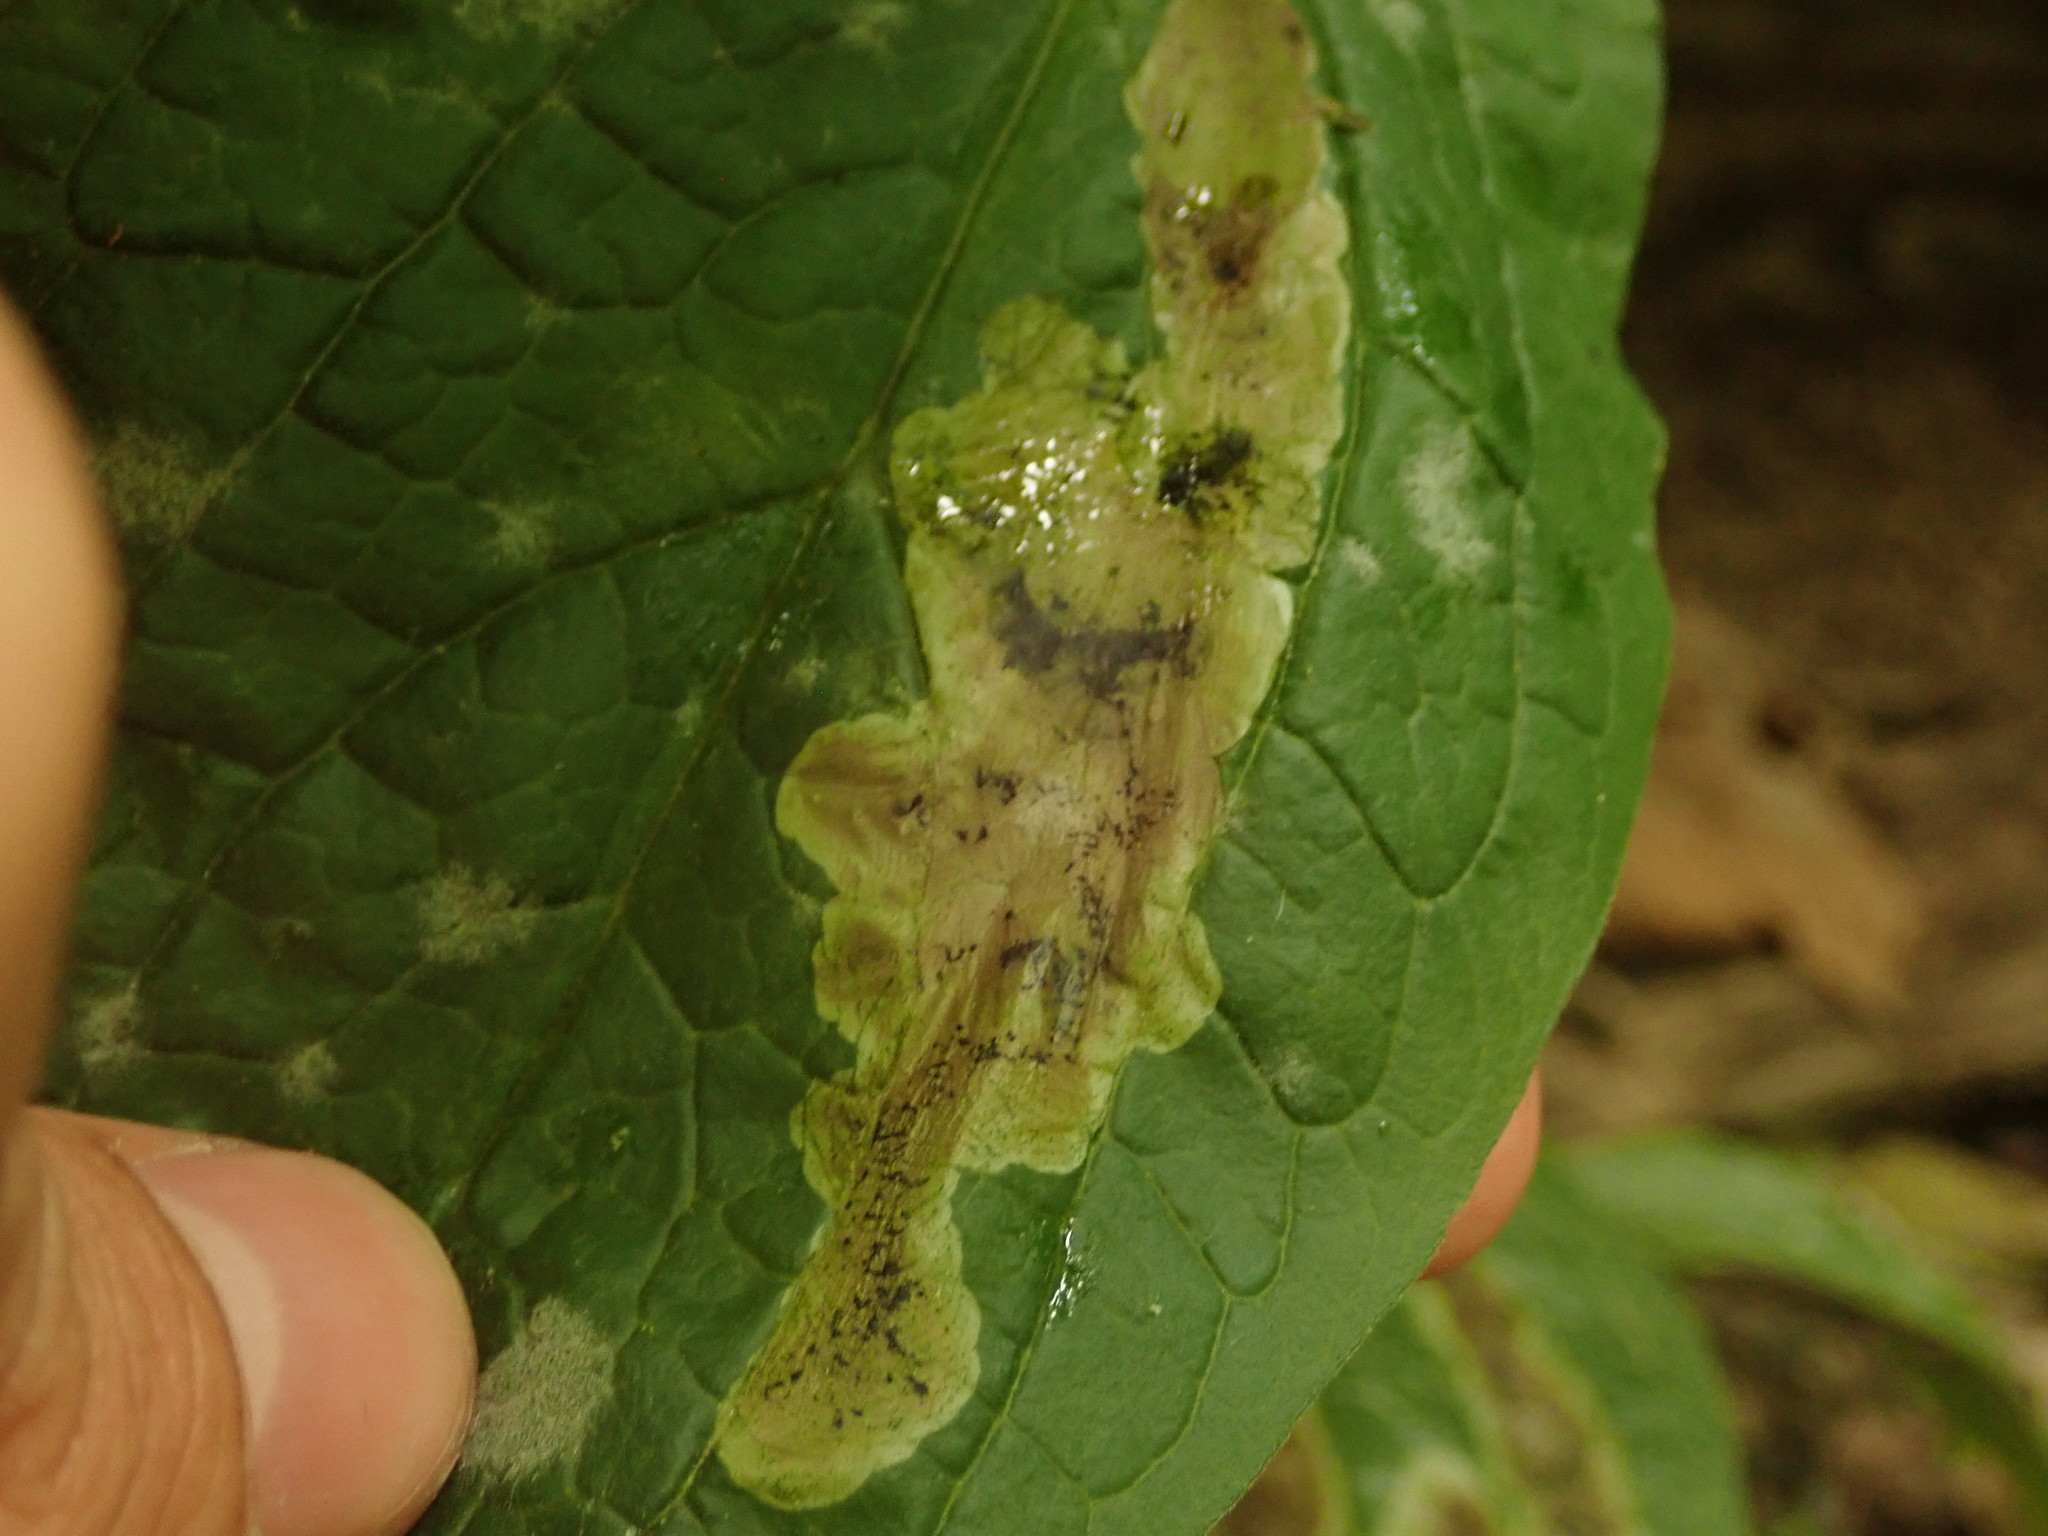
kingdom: Animalia
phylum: Arthropoda
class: Insecta
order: Diptera
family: Agromyzidae
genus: Agromyza
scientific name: Agromyza canadensis
